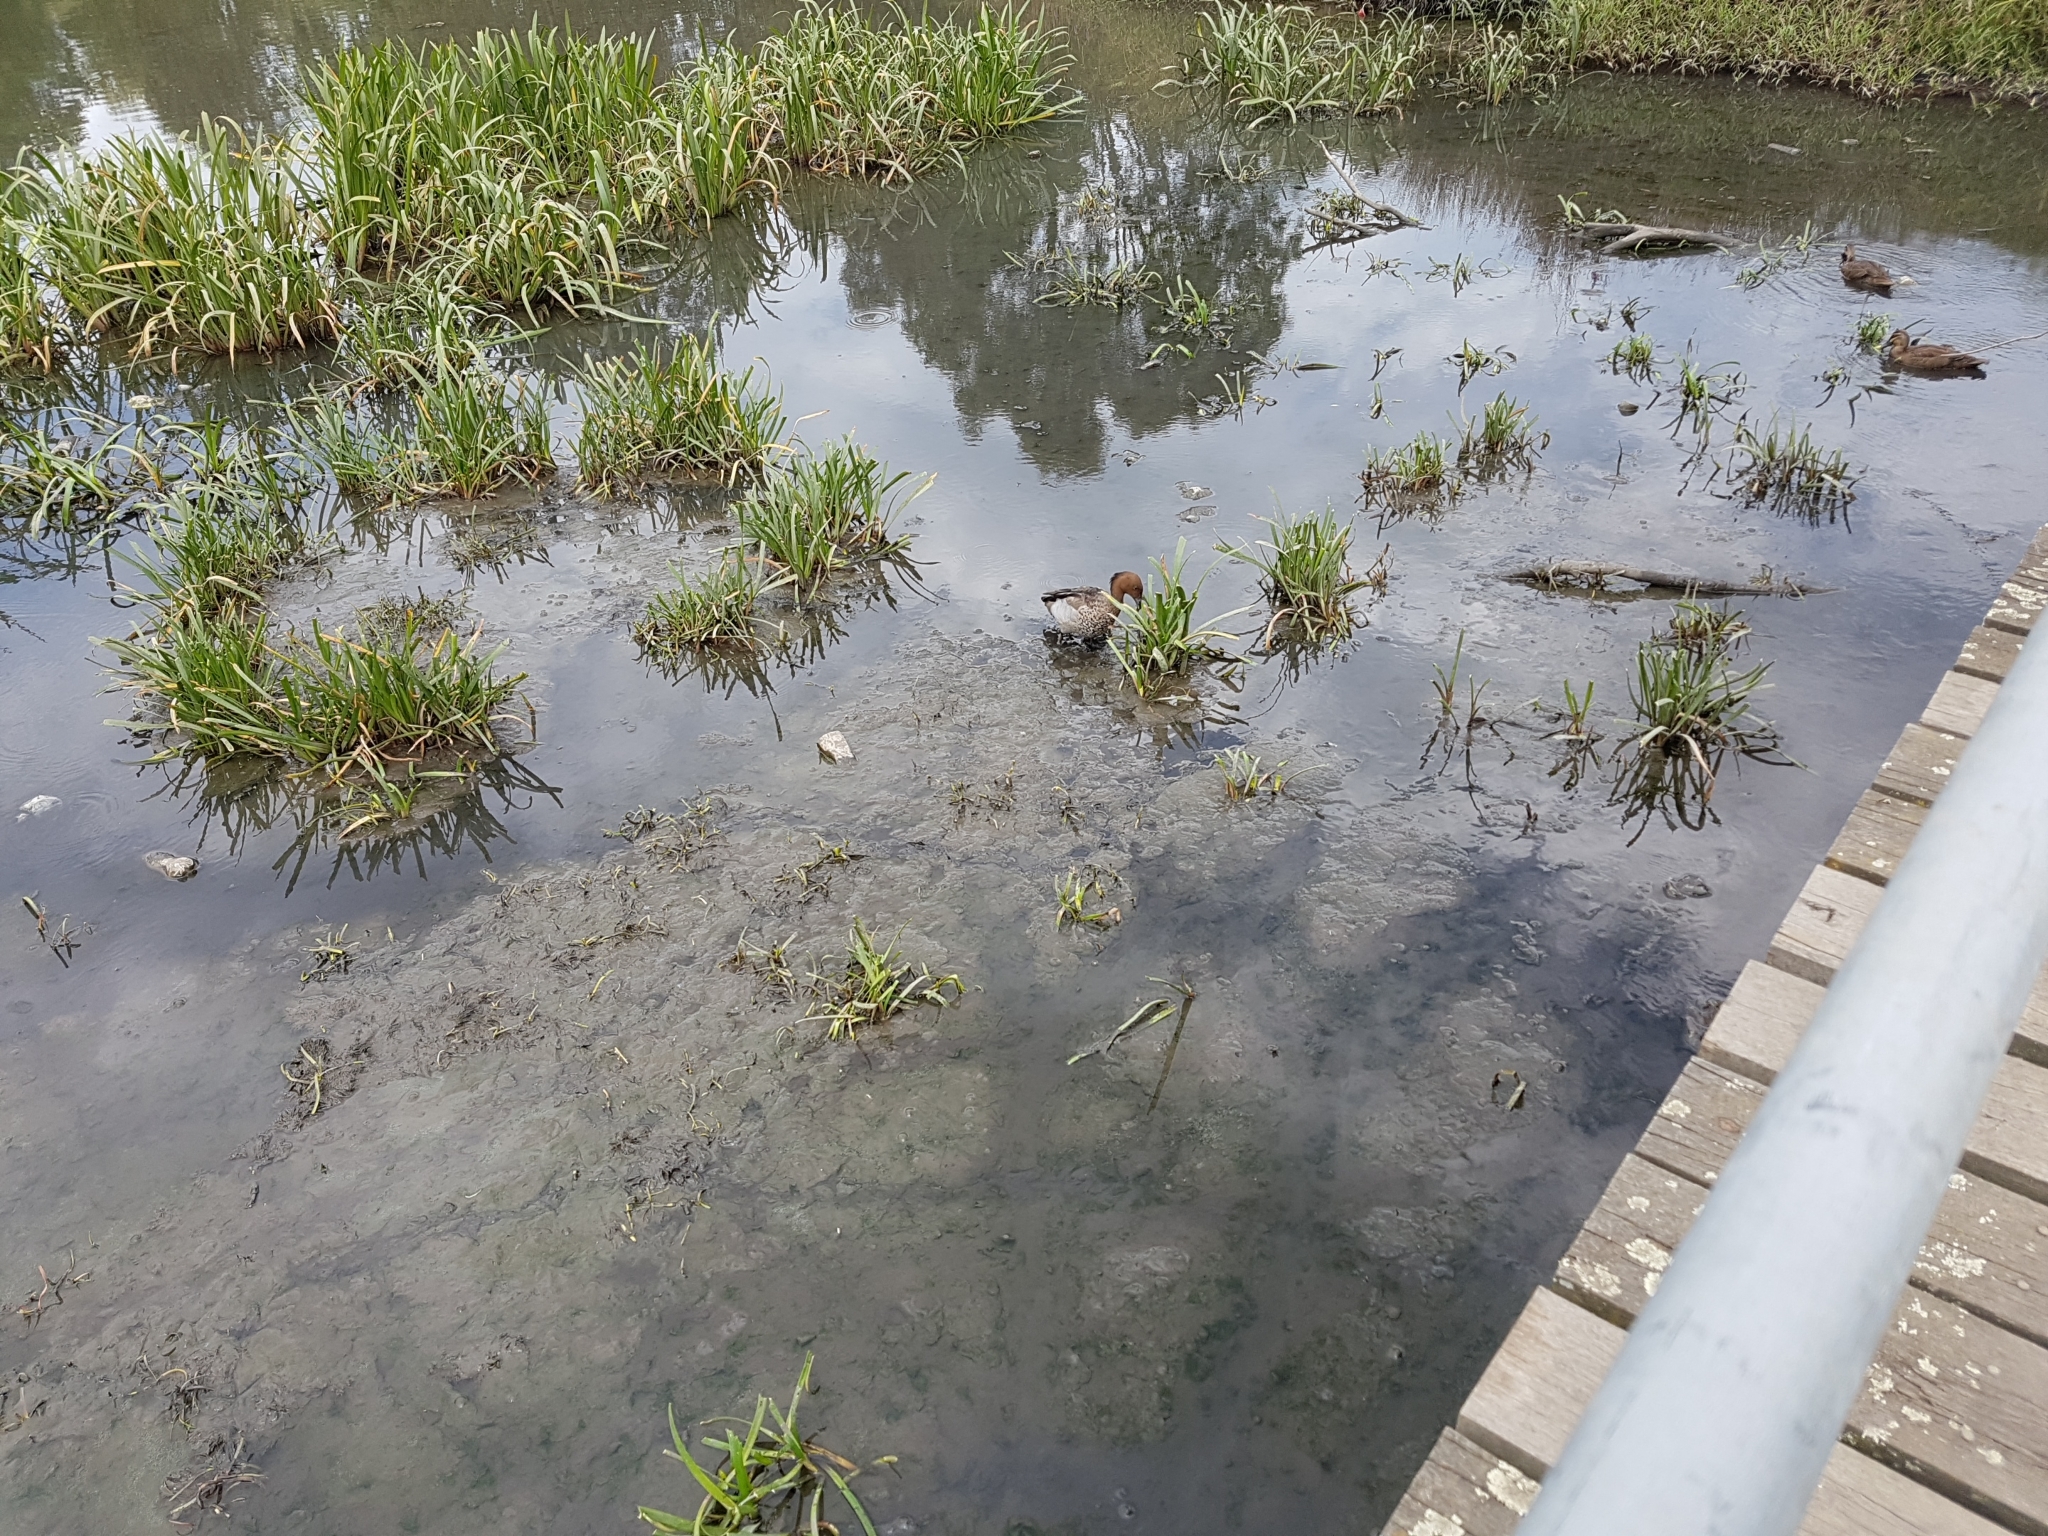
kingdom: Animalia
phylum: Chordata
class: Aves
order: Anseriformes
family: Anatidae
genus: Chenonetta
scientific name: Chenonetta jubata
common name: Maned duck
